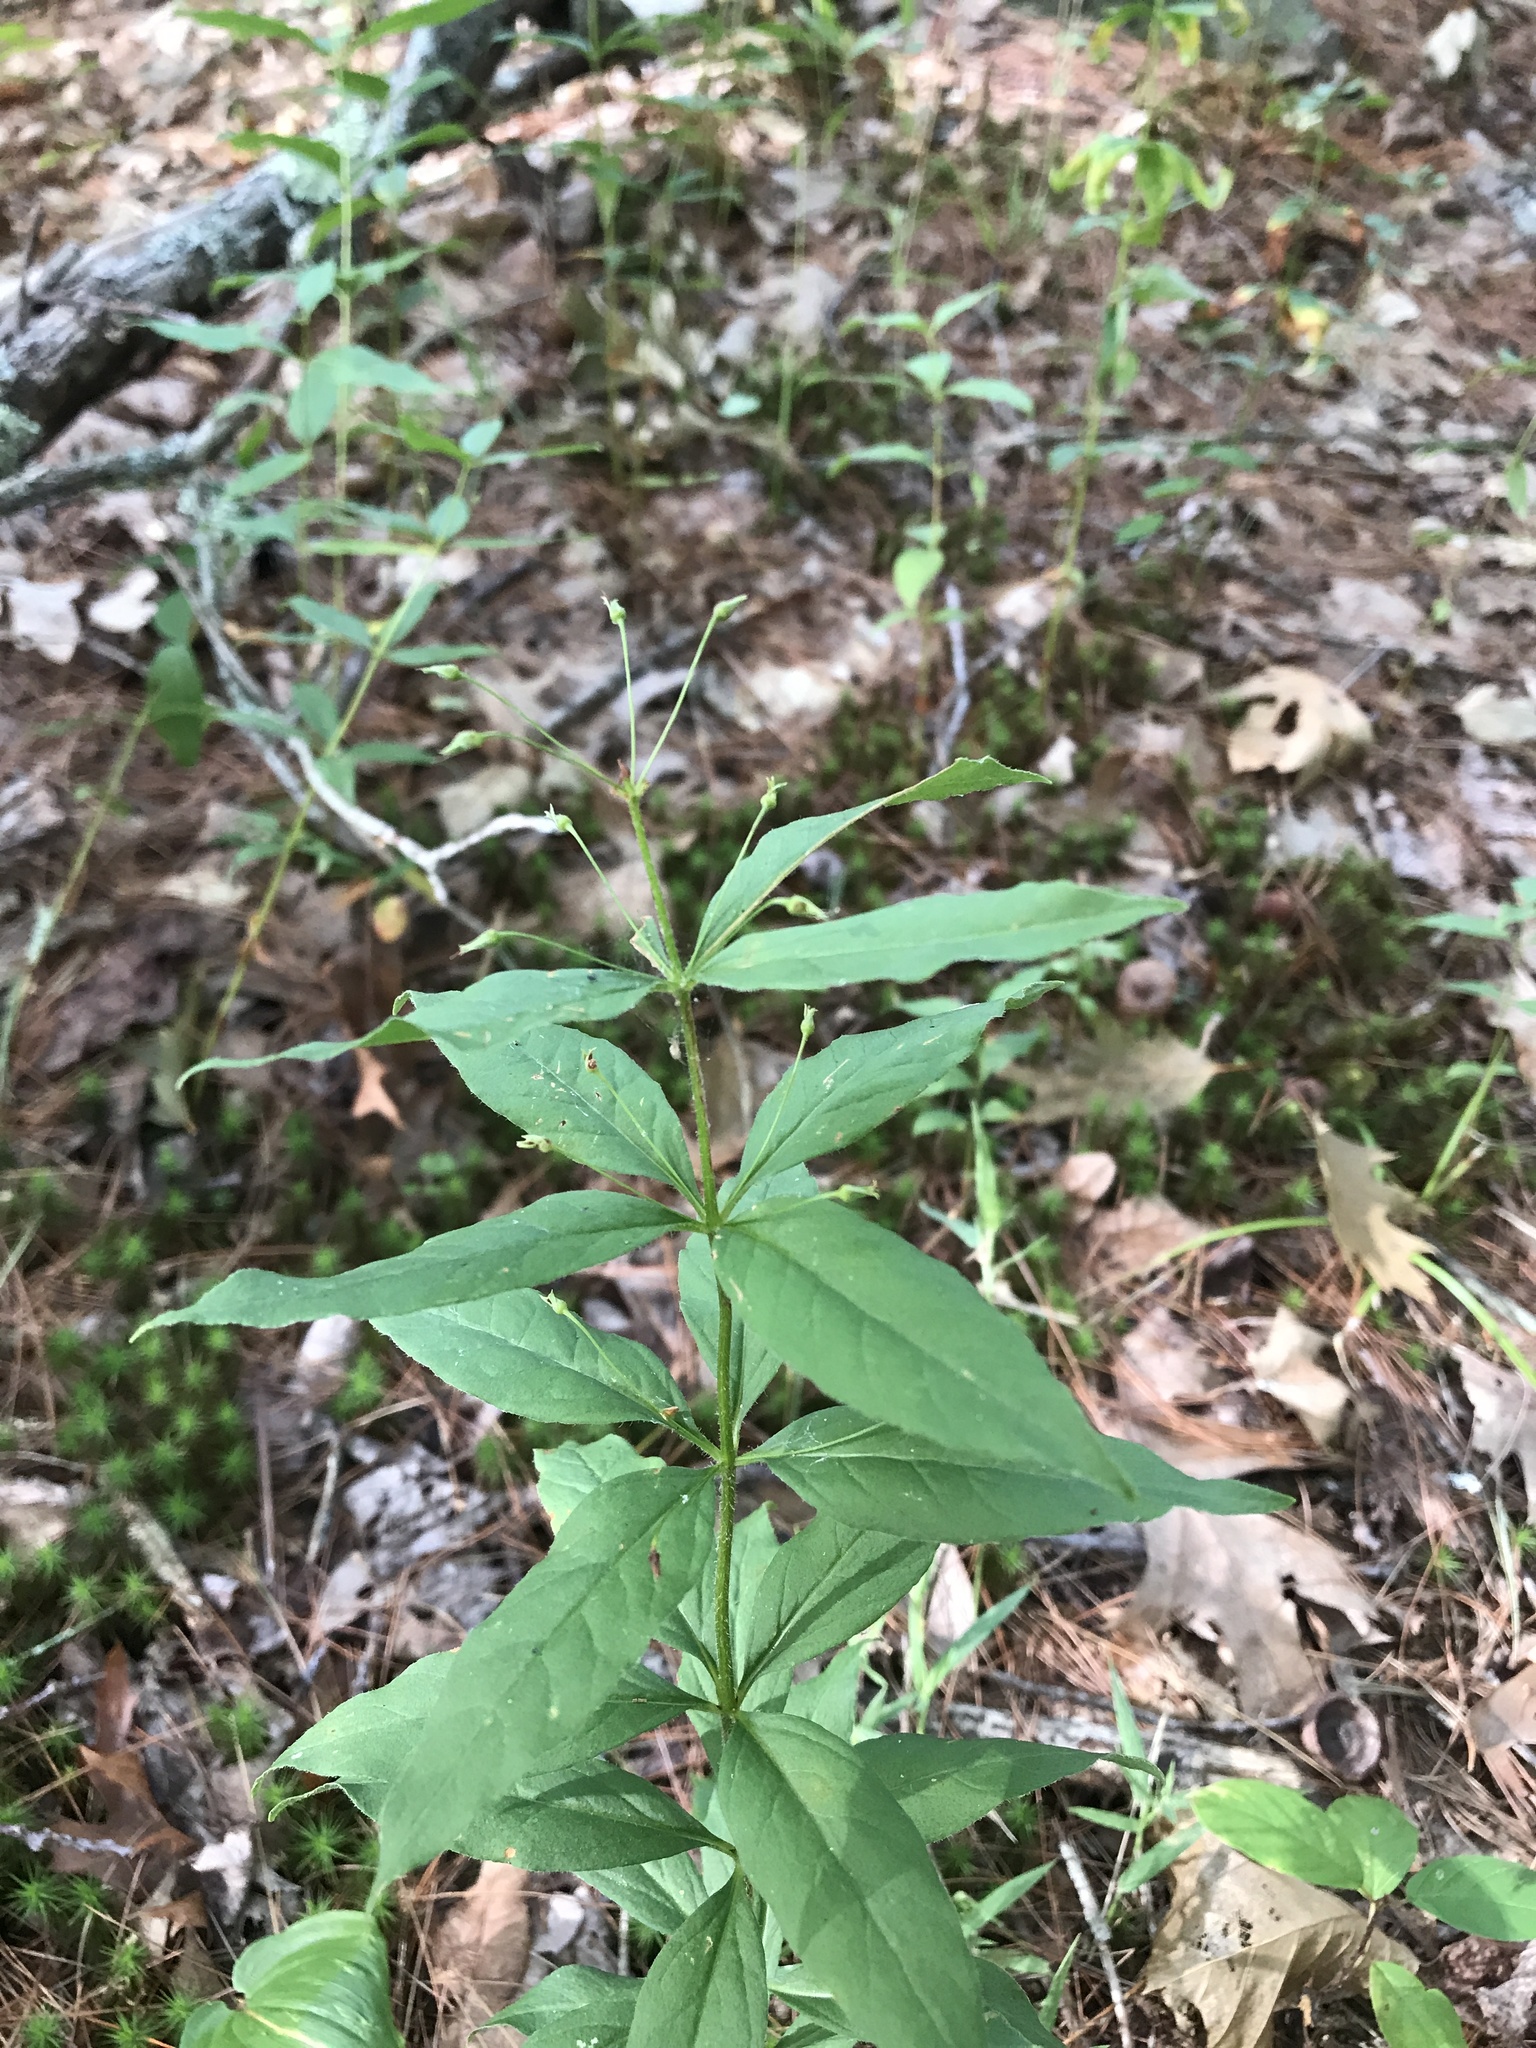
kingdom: Plantae
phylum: Tracheophyta
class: Magnoliopsida
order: Ericales
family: Primulaceae
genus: Lysimachia
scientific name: Lysimachia quadrifolia
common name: Whorled loosestrife
